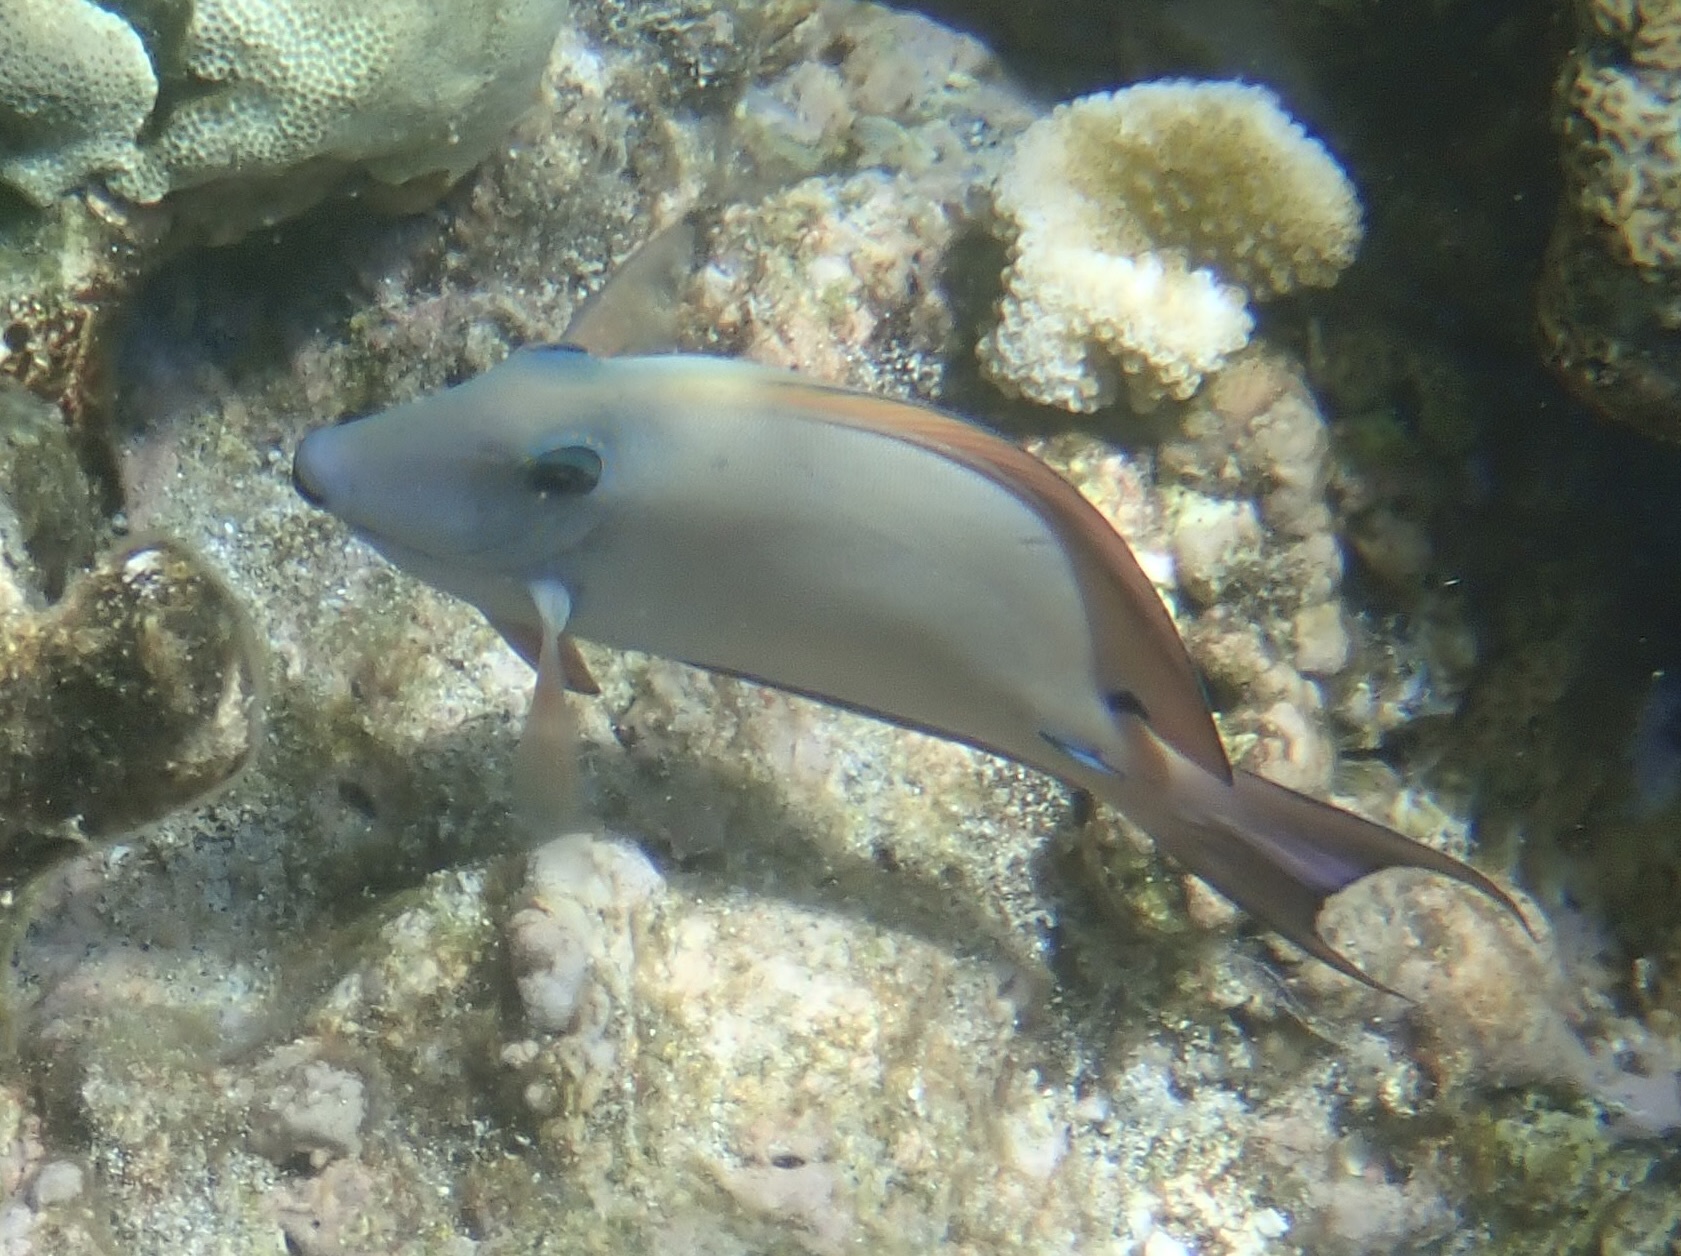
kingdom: Animalia
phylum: Chordata
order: Perciformes
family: Acanthuridae
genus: Acanthurus
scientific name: Acanthurus nigrofuscus
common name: Blackspot surgeonfish
